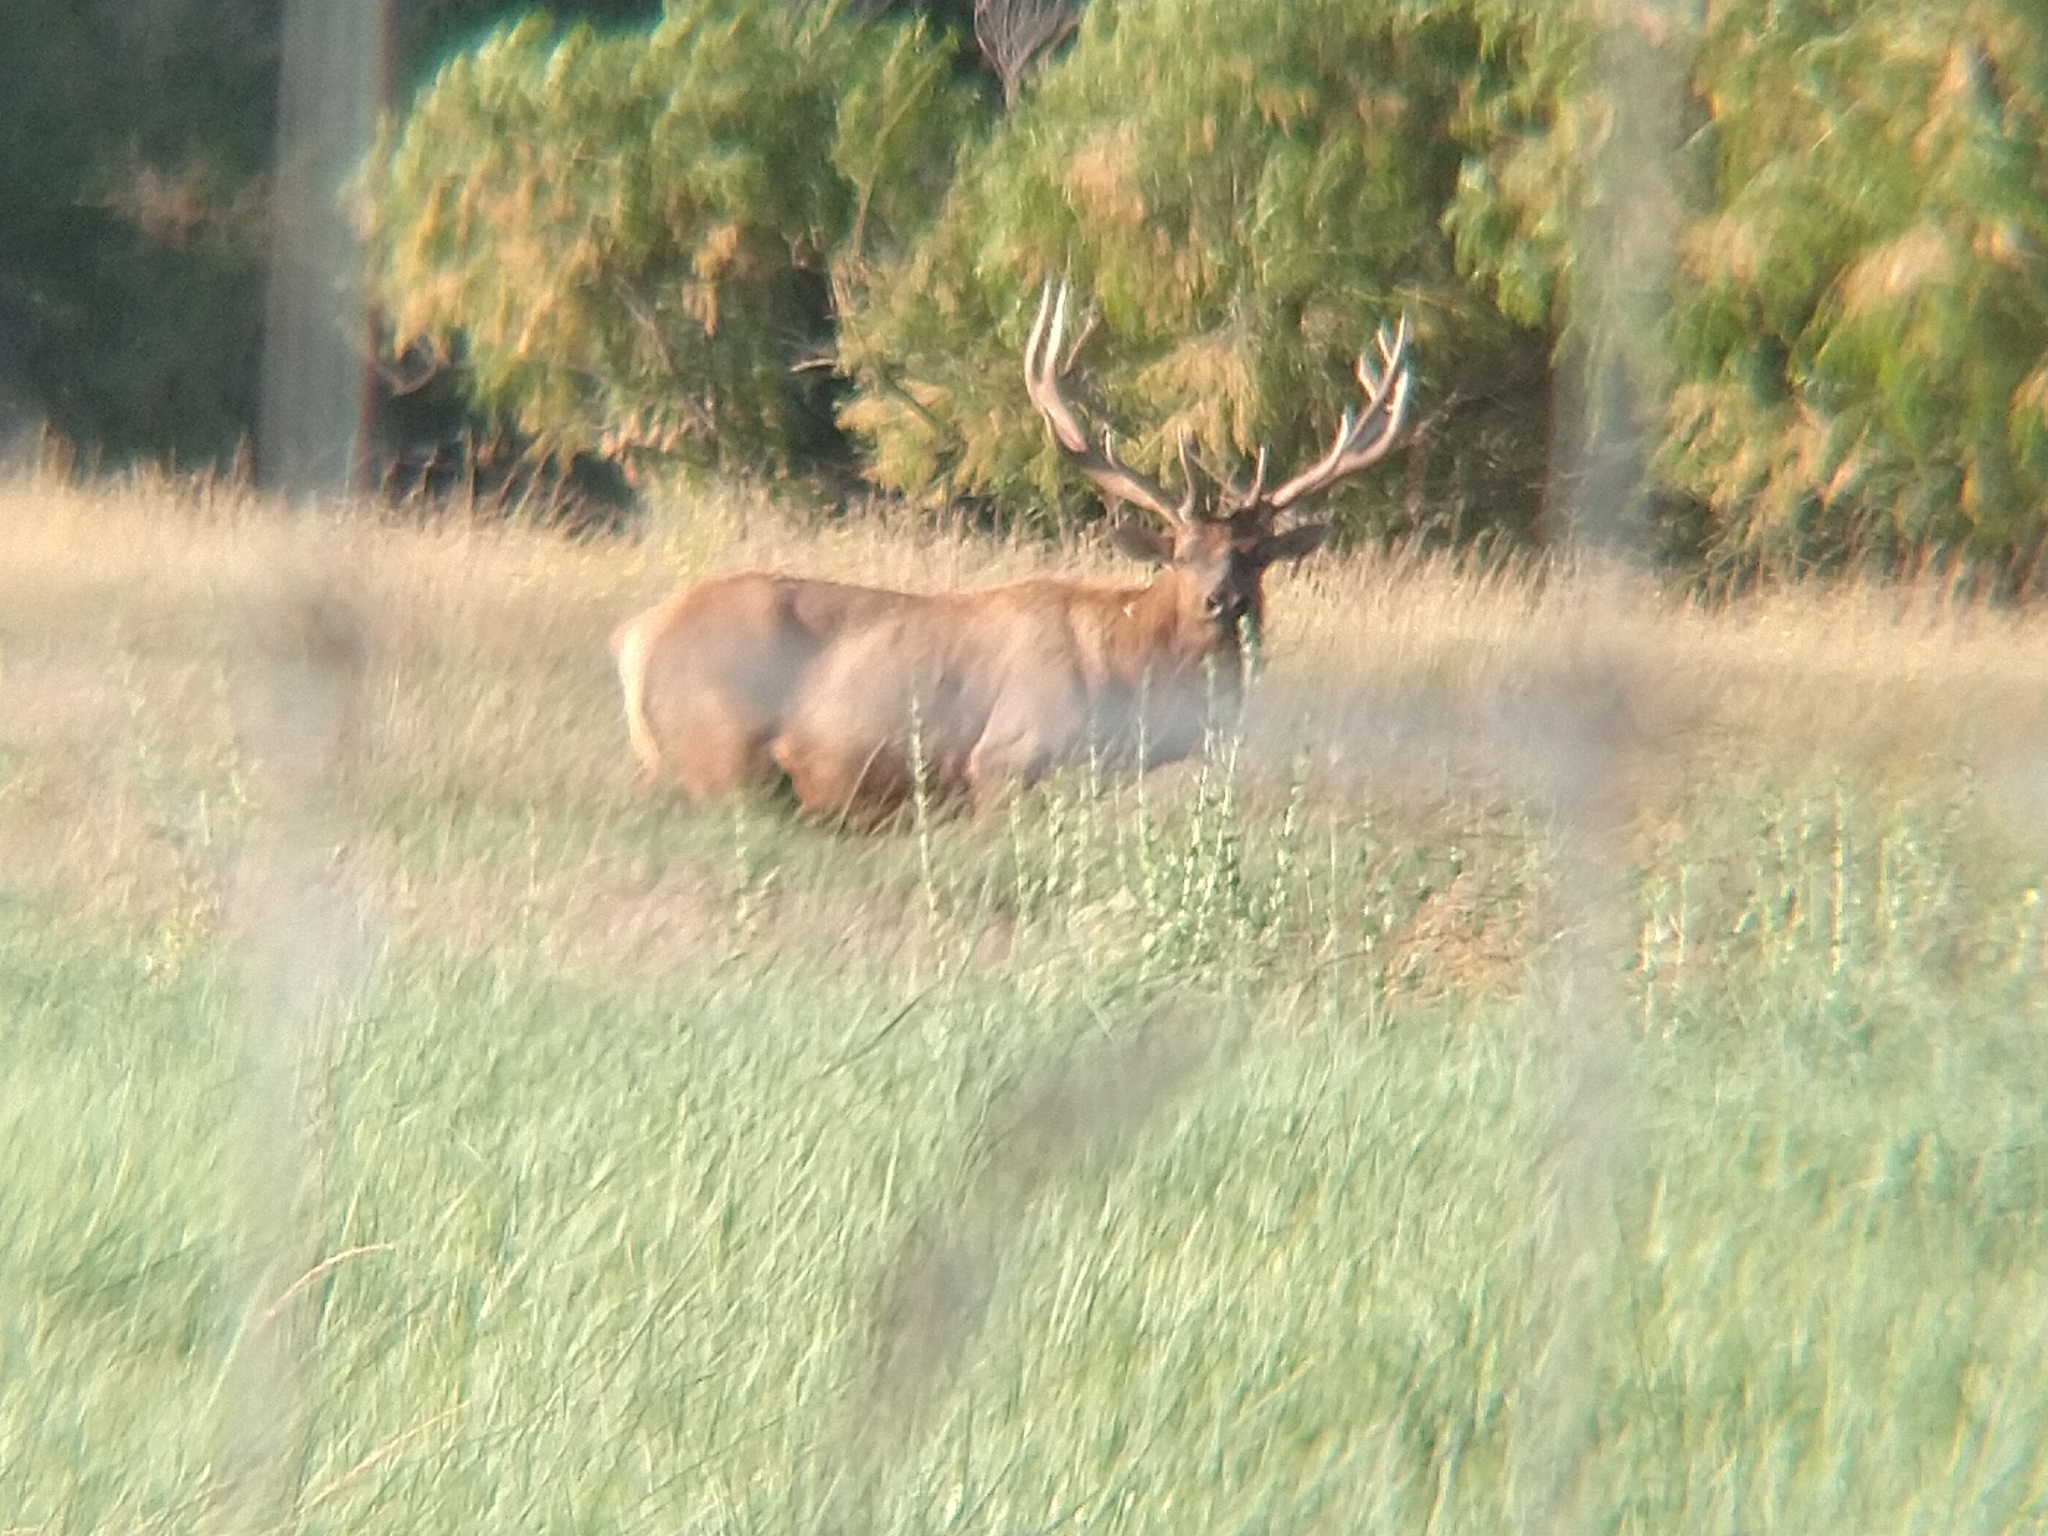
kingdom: Animalia
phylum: Chordata
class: Mammalia
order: Artiodactyla
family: Cervidae
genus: Cervus
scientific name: Cervus elaphus
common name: Red deer
